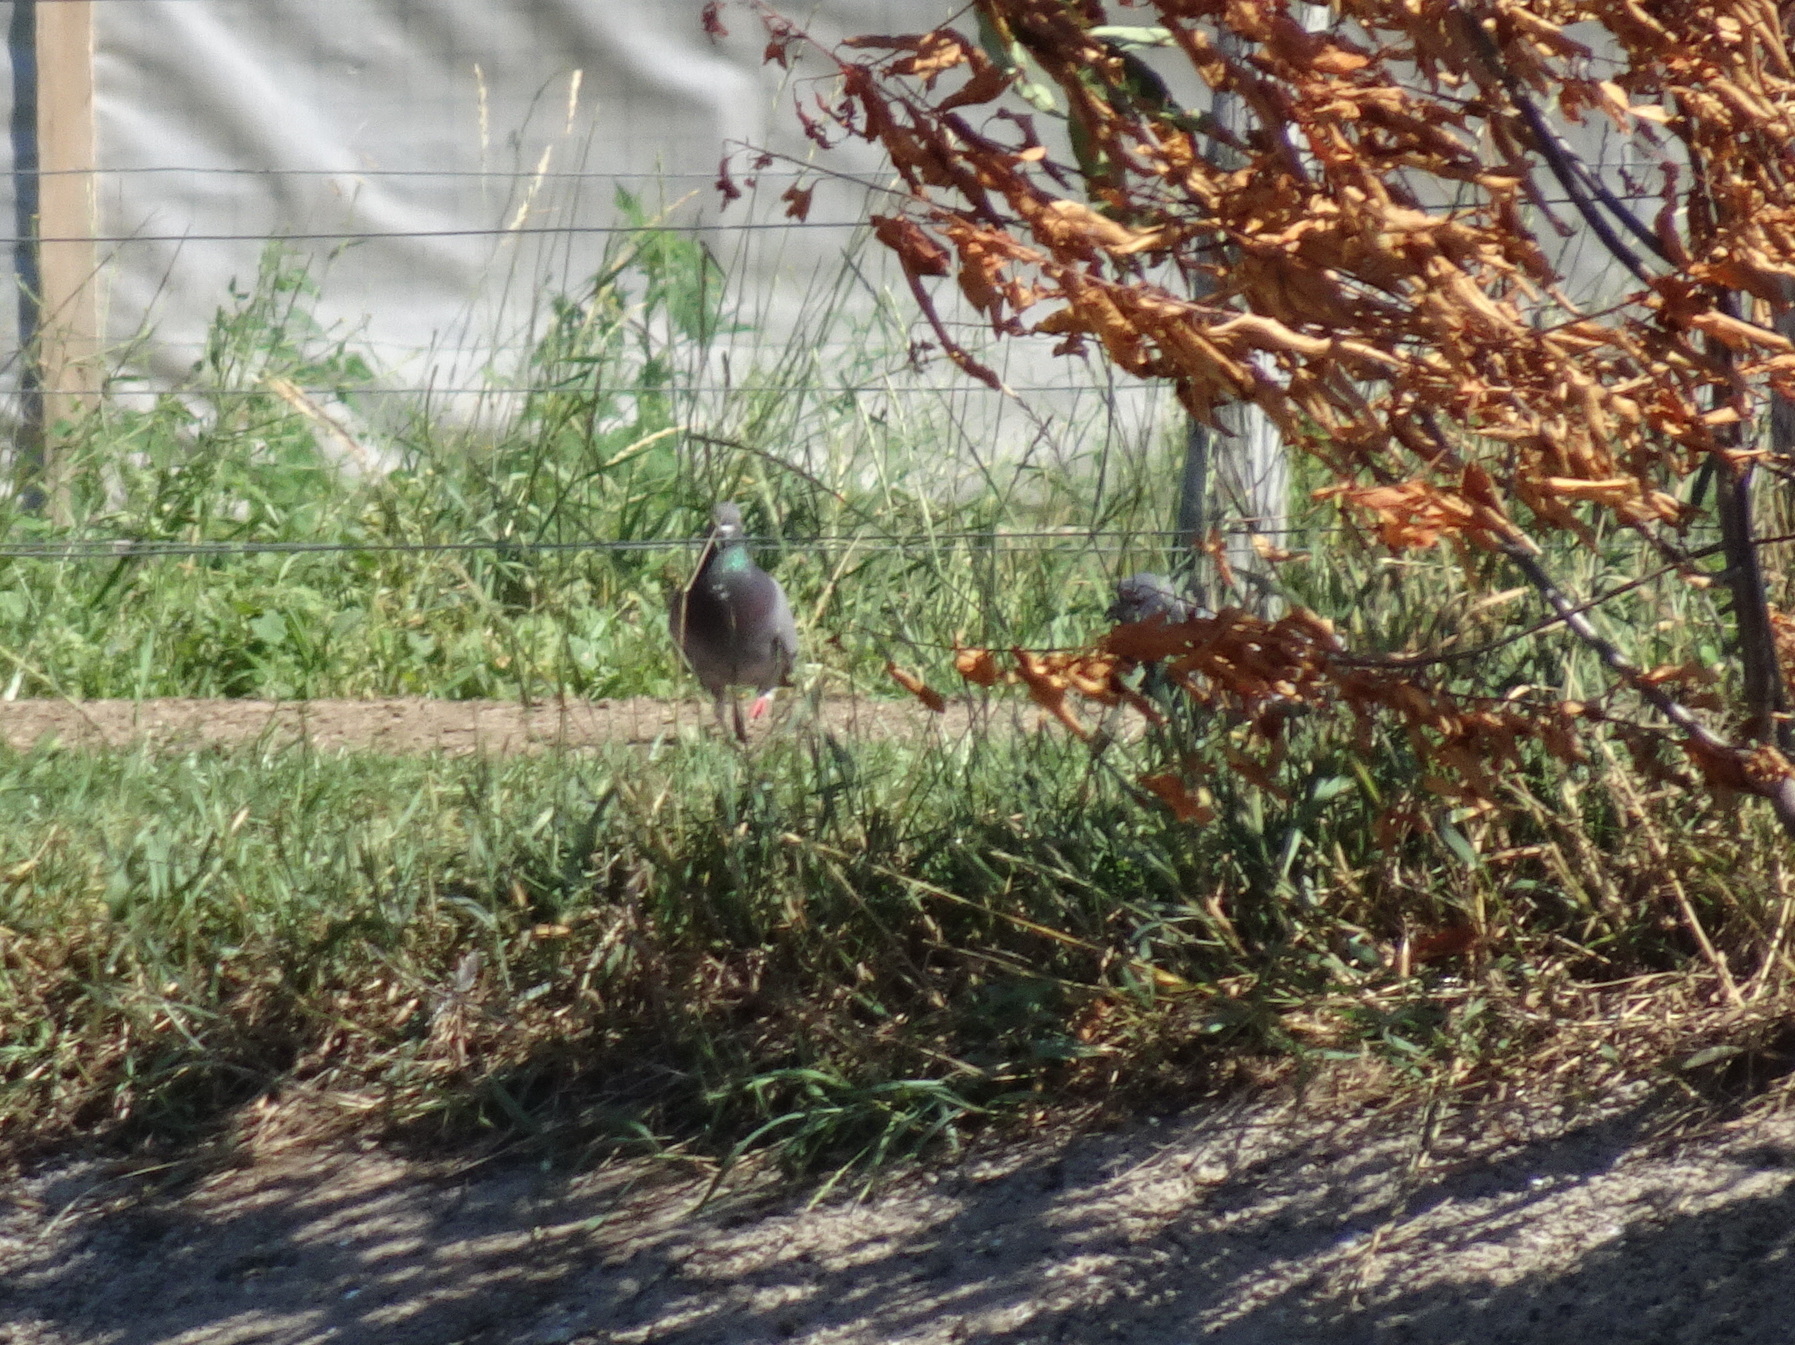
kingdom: Animalia
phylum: Chordata
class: Aves
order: Columbiformes
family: Columbidae
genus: Columba
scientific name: Columba livia
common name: Rock pigeon
